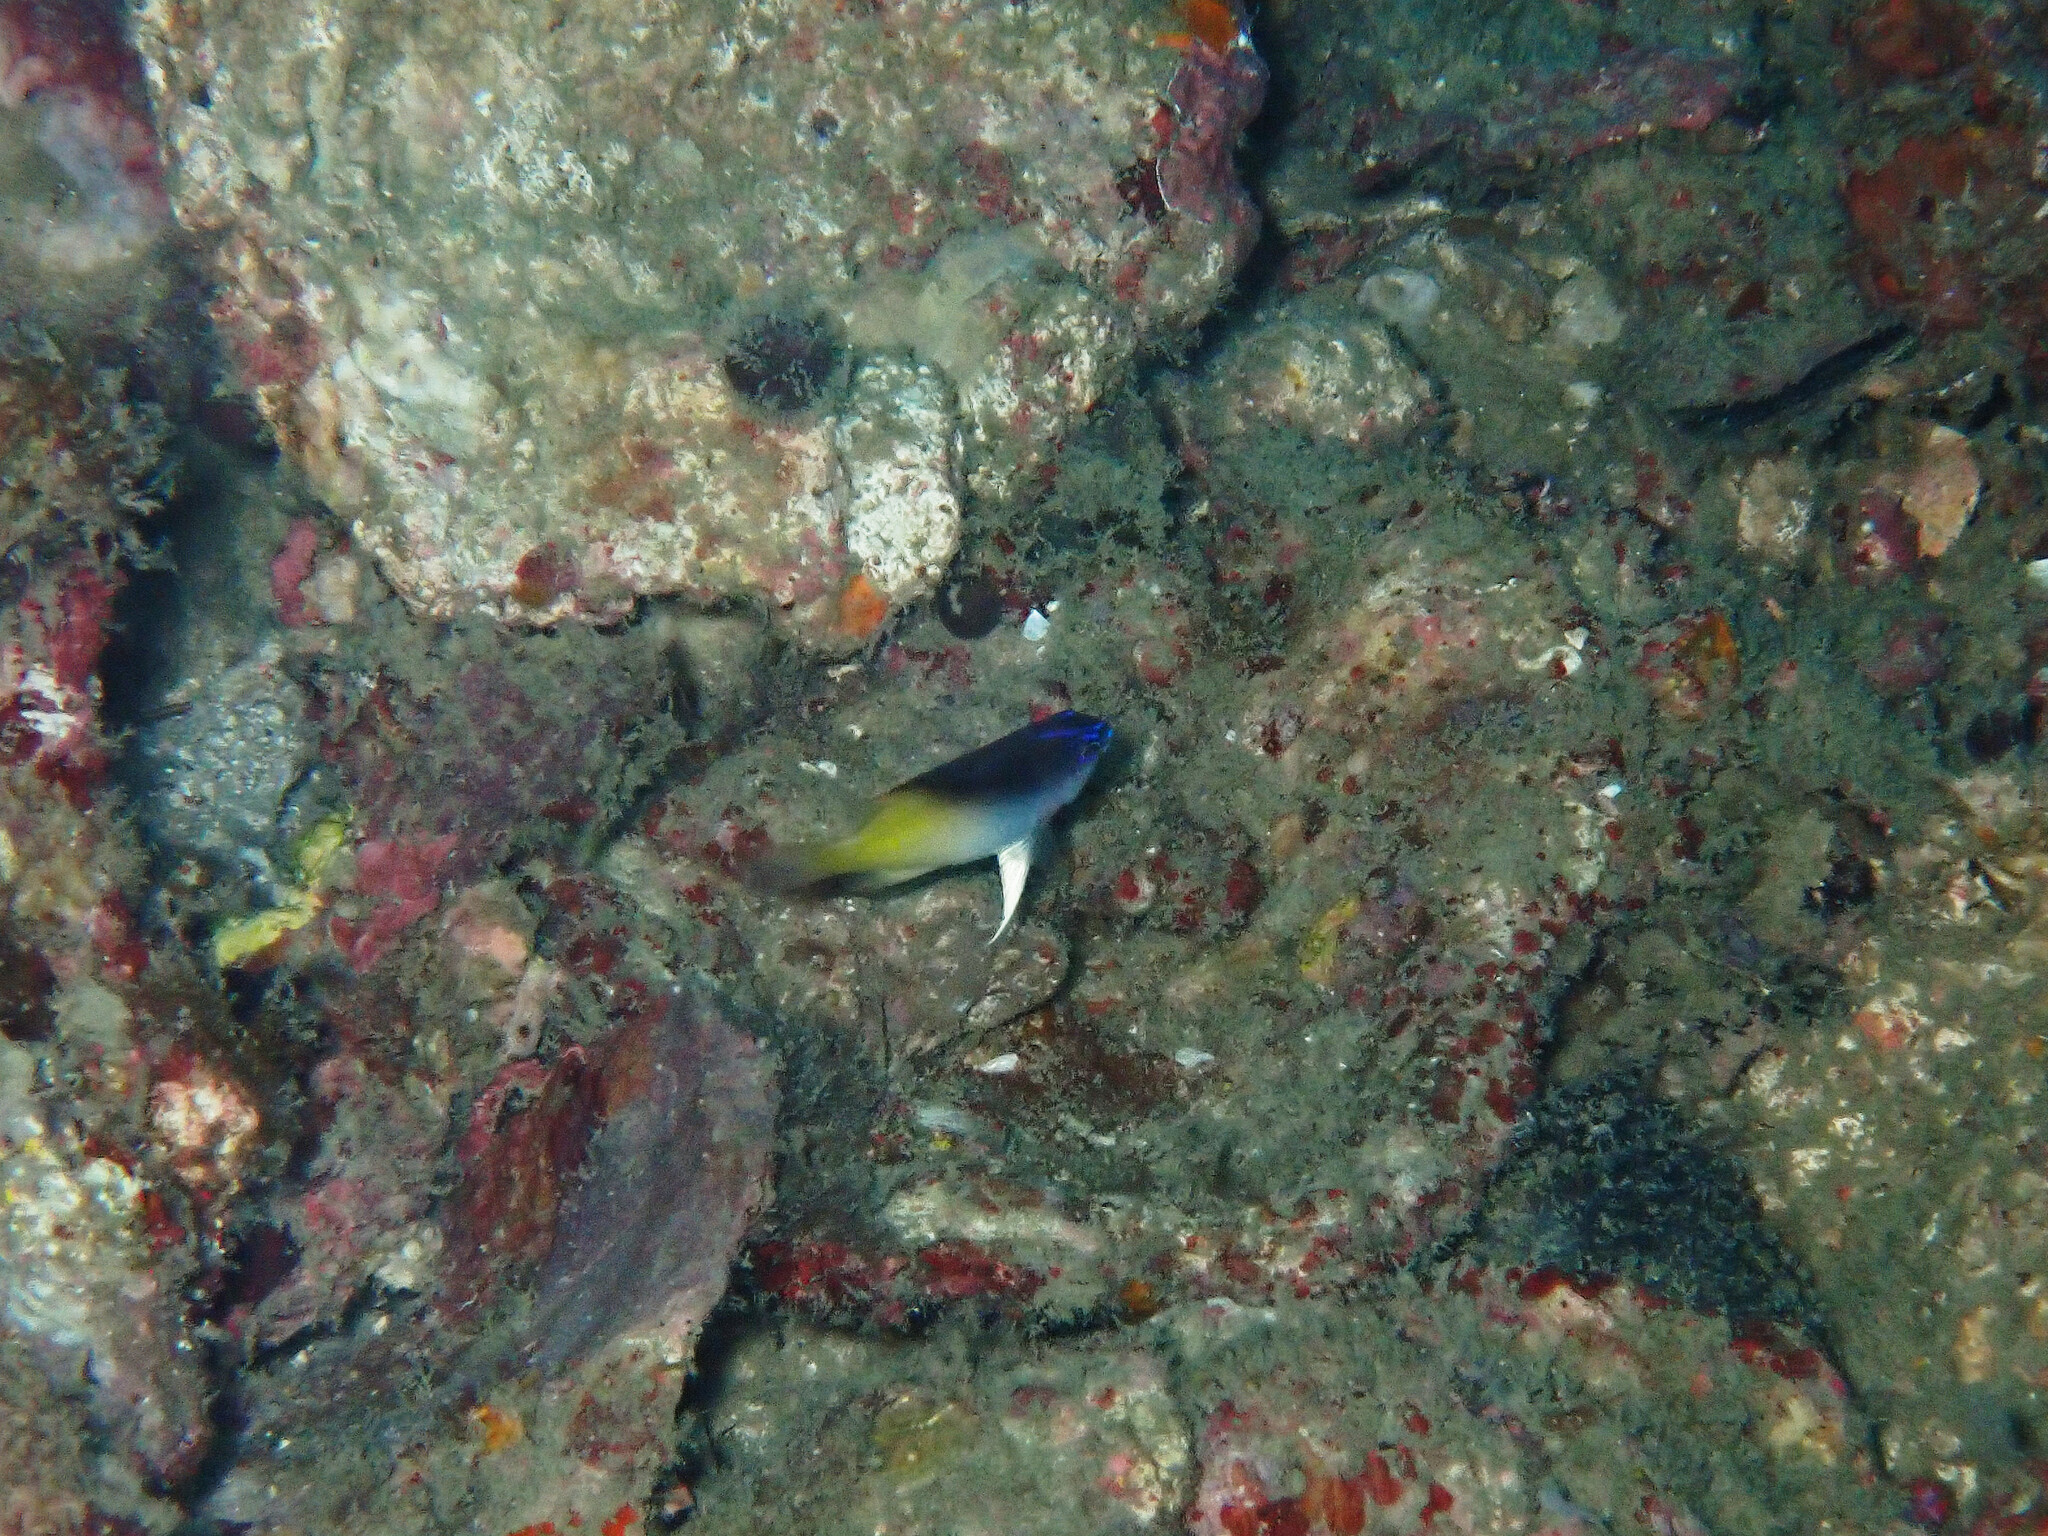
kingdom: Animalia
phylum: Chordata
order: Perciformes
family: Pomacentridae
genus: Chrysiptera
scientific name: Chrysiptera rollandi
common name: Rolland's demoiselle
